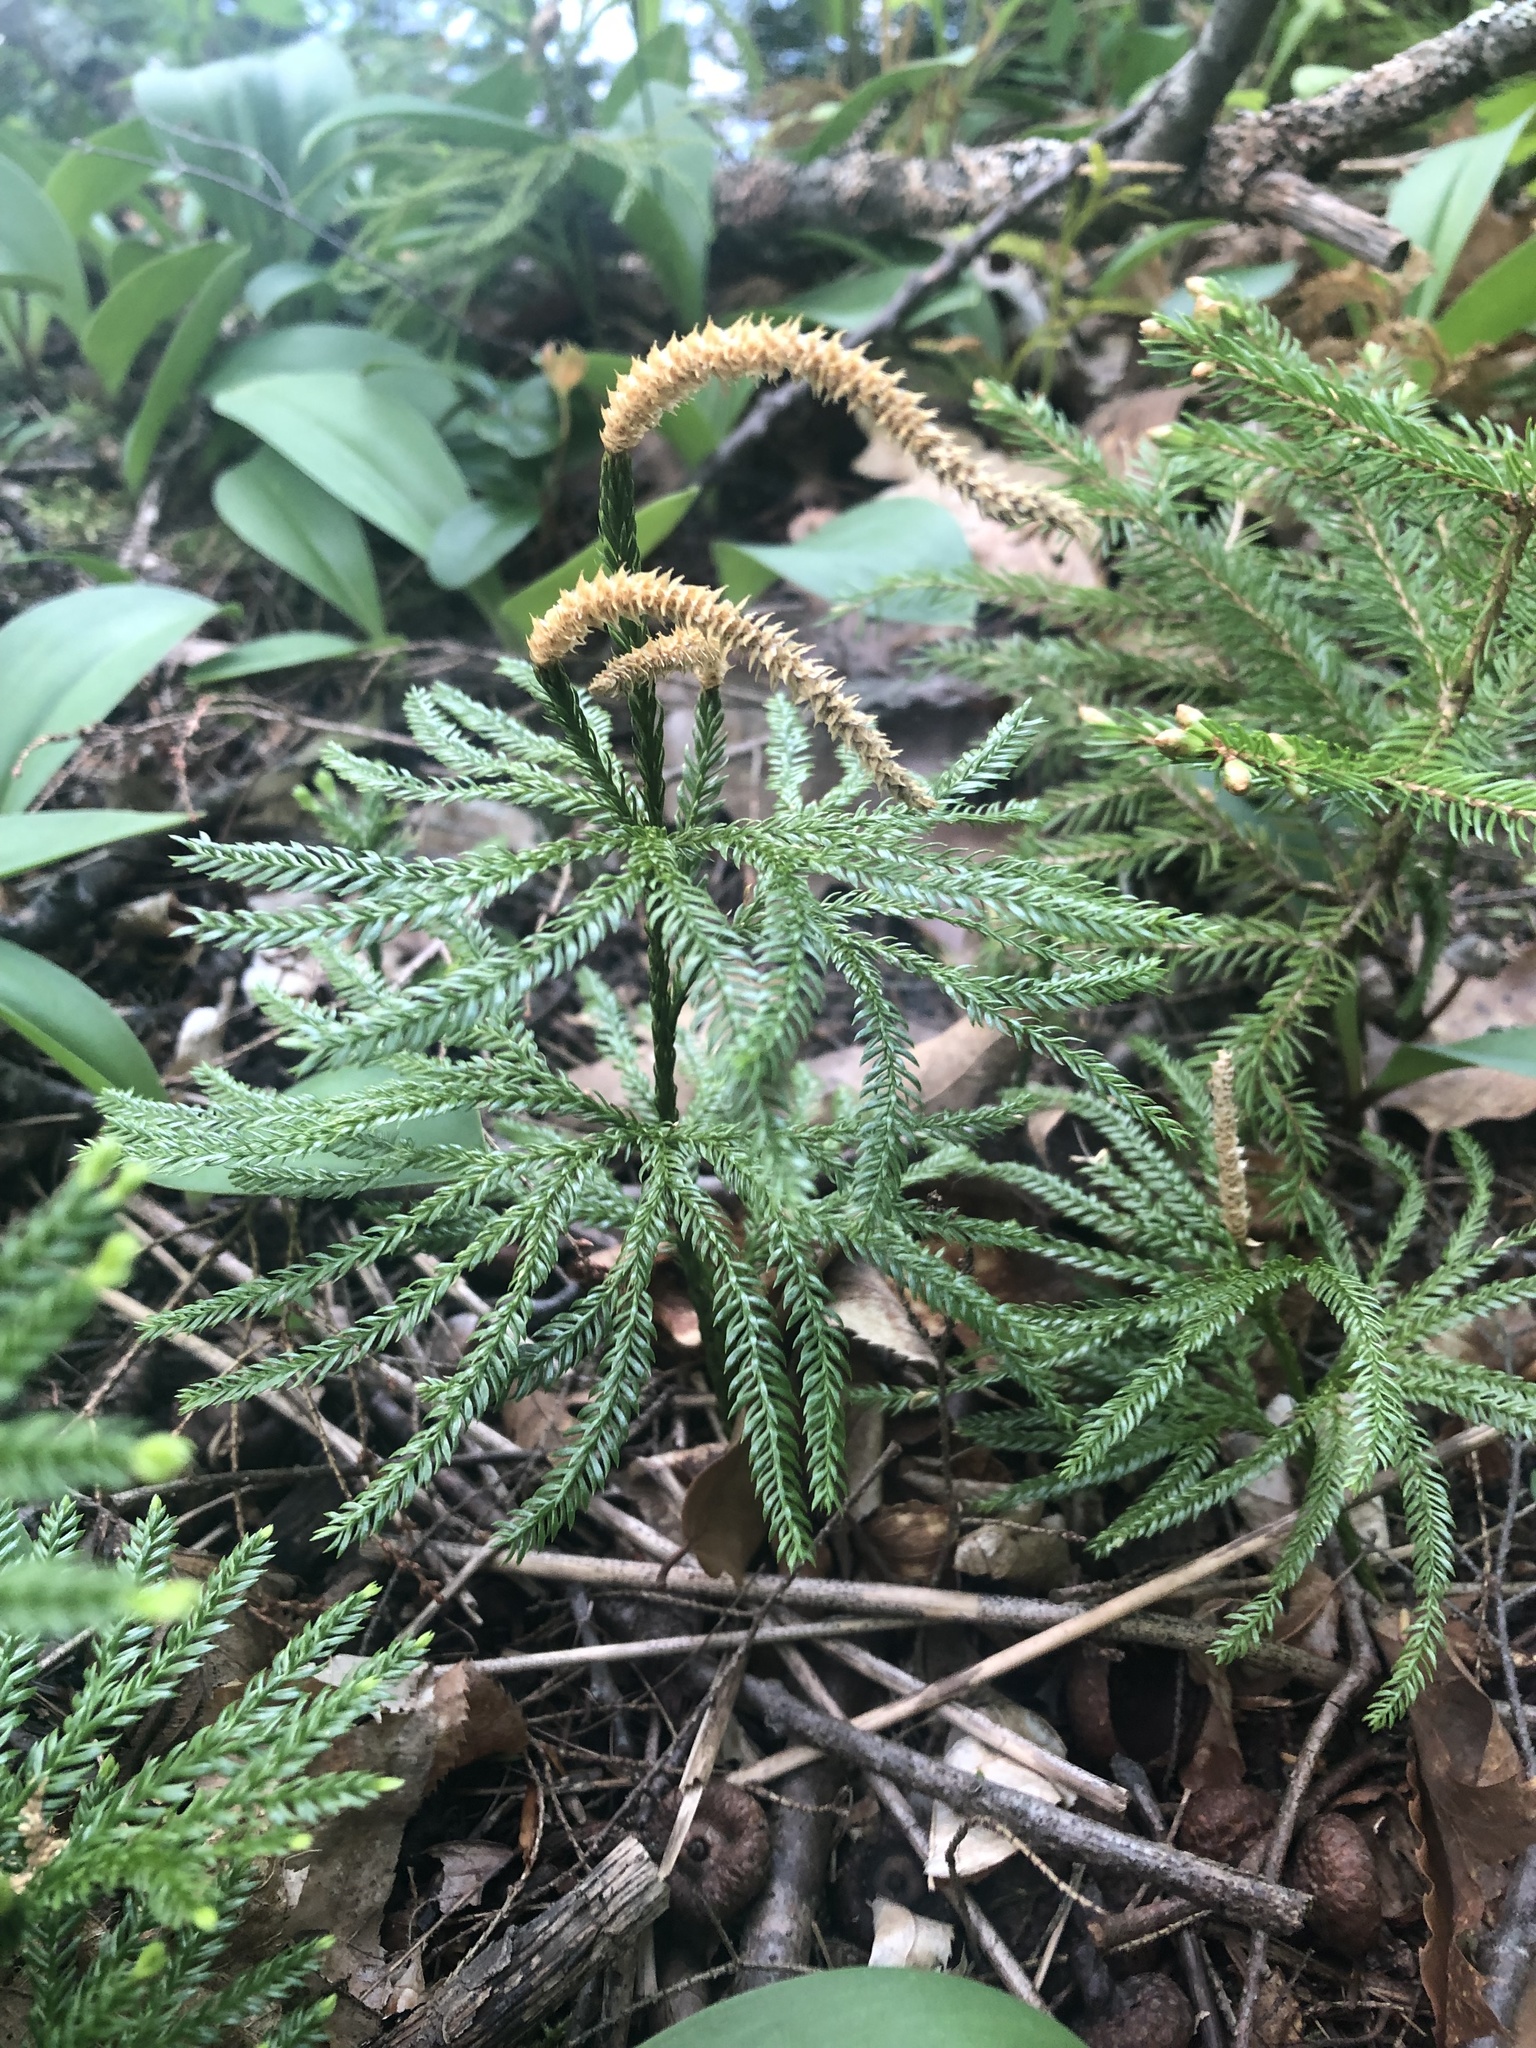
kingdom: Plantae
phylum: Tracheophyta
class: Lycopodiopsida
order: Lycopodiales
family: Lycopodiaceae
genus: Dendrolycopodium
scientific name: Dendrolycopodium obscurum
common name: Common ground-pine
